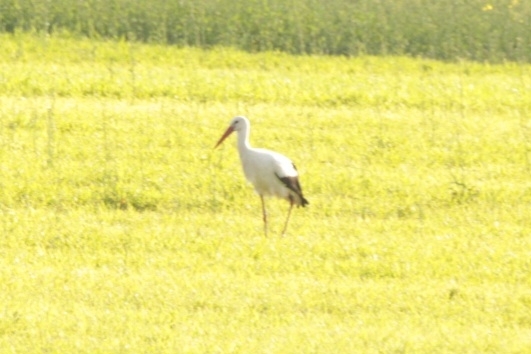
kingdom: Animalia
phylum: Chordata
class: Aves
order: Ciconiiformes
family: Ciconiidae
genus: Ciconia
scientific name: Ciconia ciconia
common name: White stork
